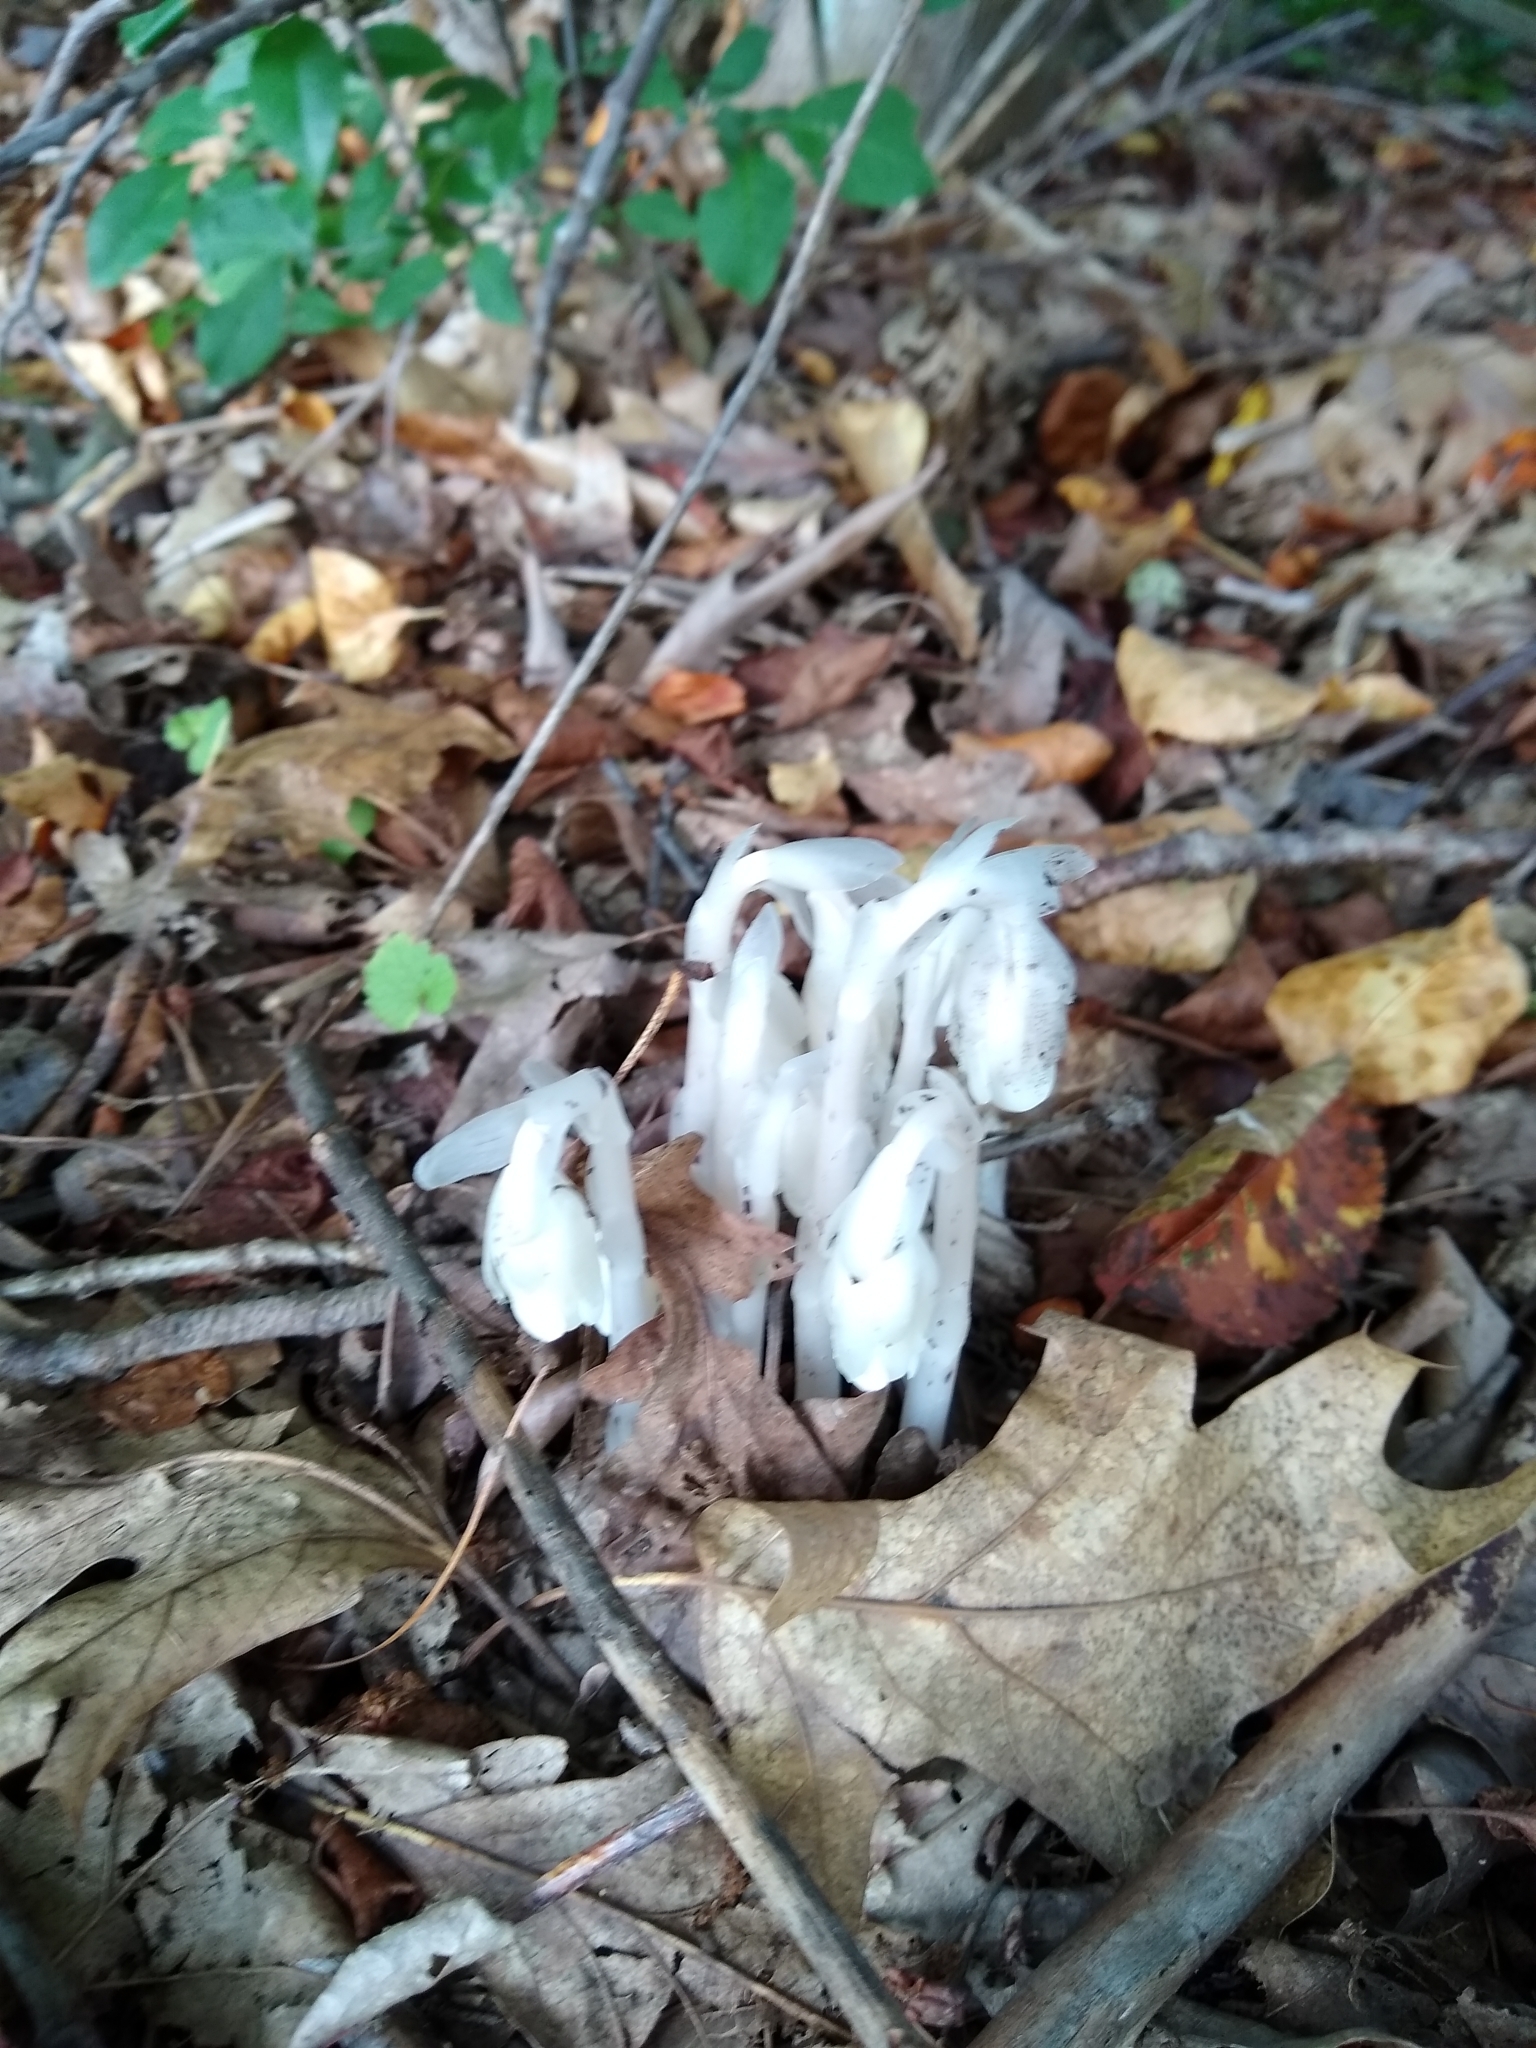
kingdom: Plantae
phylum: Tracheophyta
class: Magnoliopsida
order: Ericales
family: Ericaceae
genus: Monotropa
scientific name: Monotropa uniflora
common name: Convulsion root
